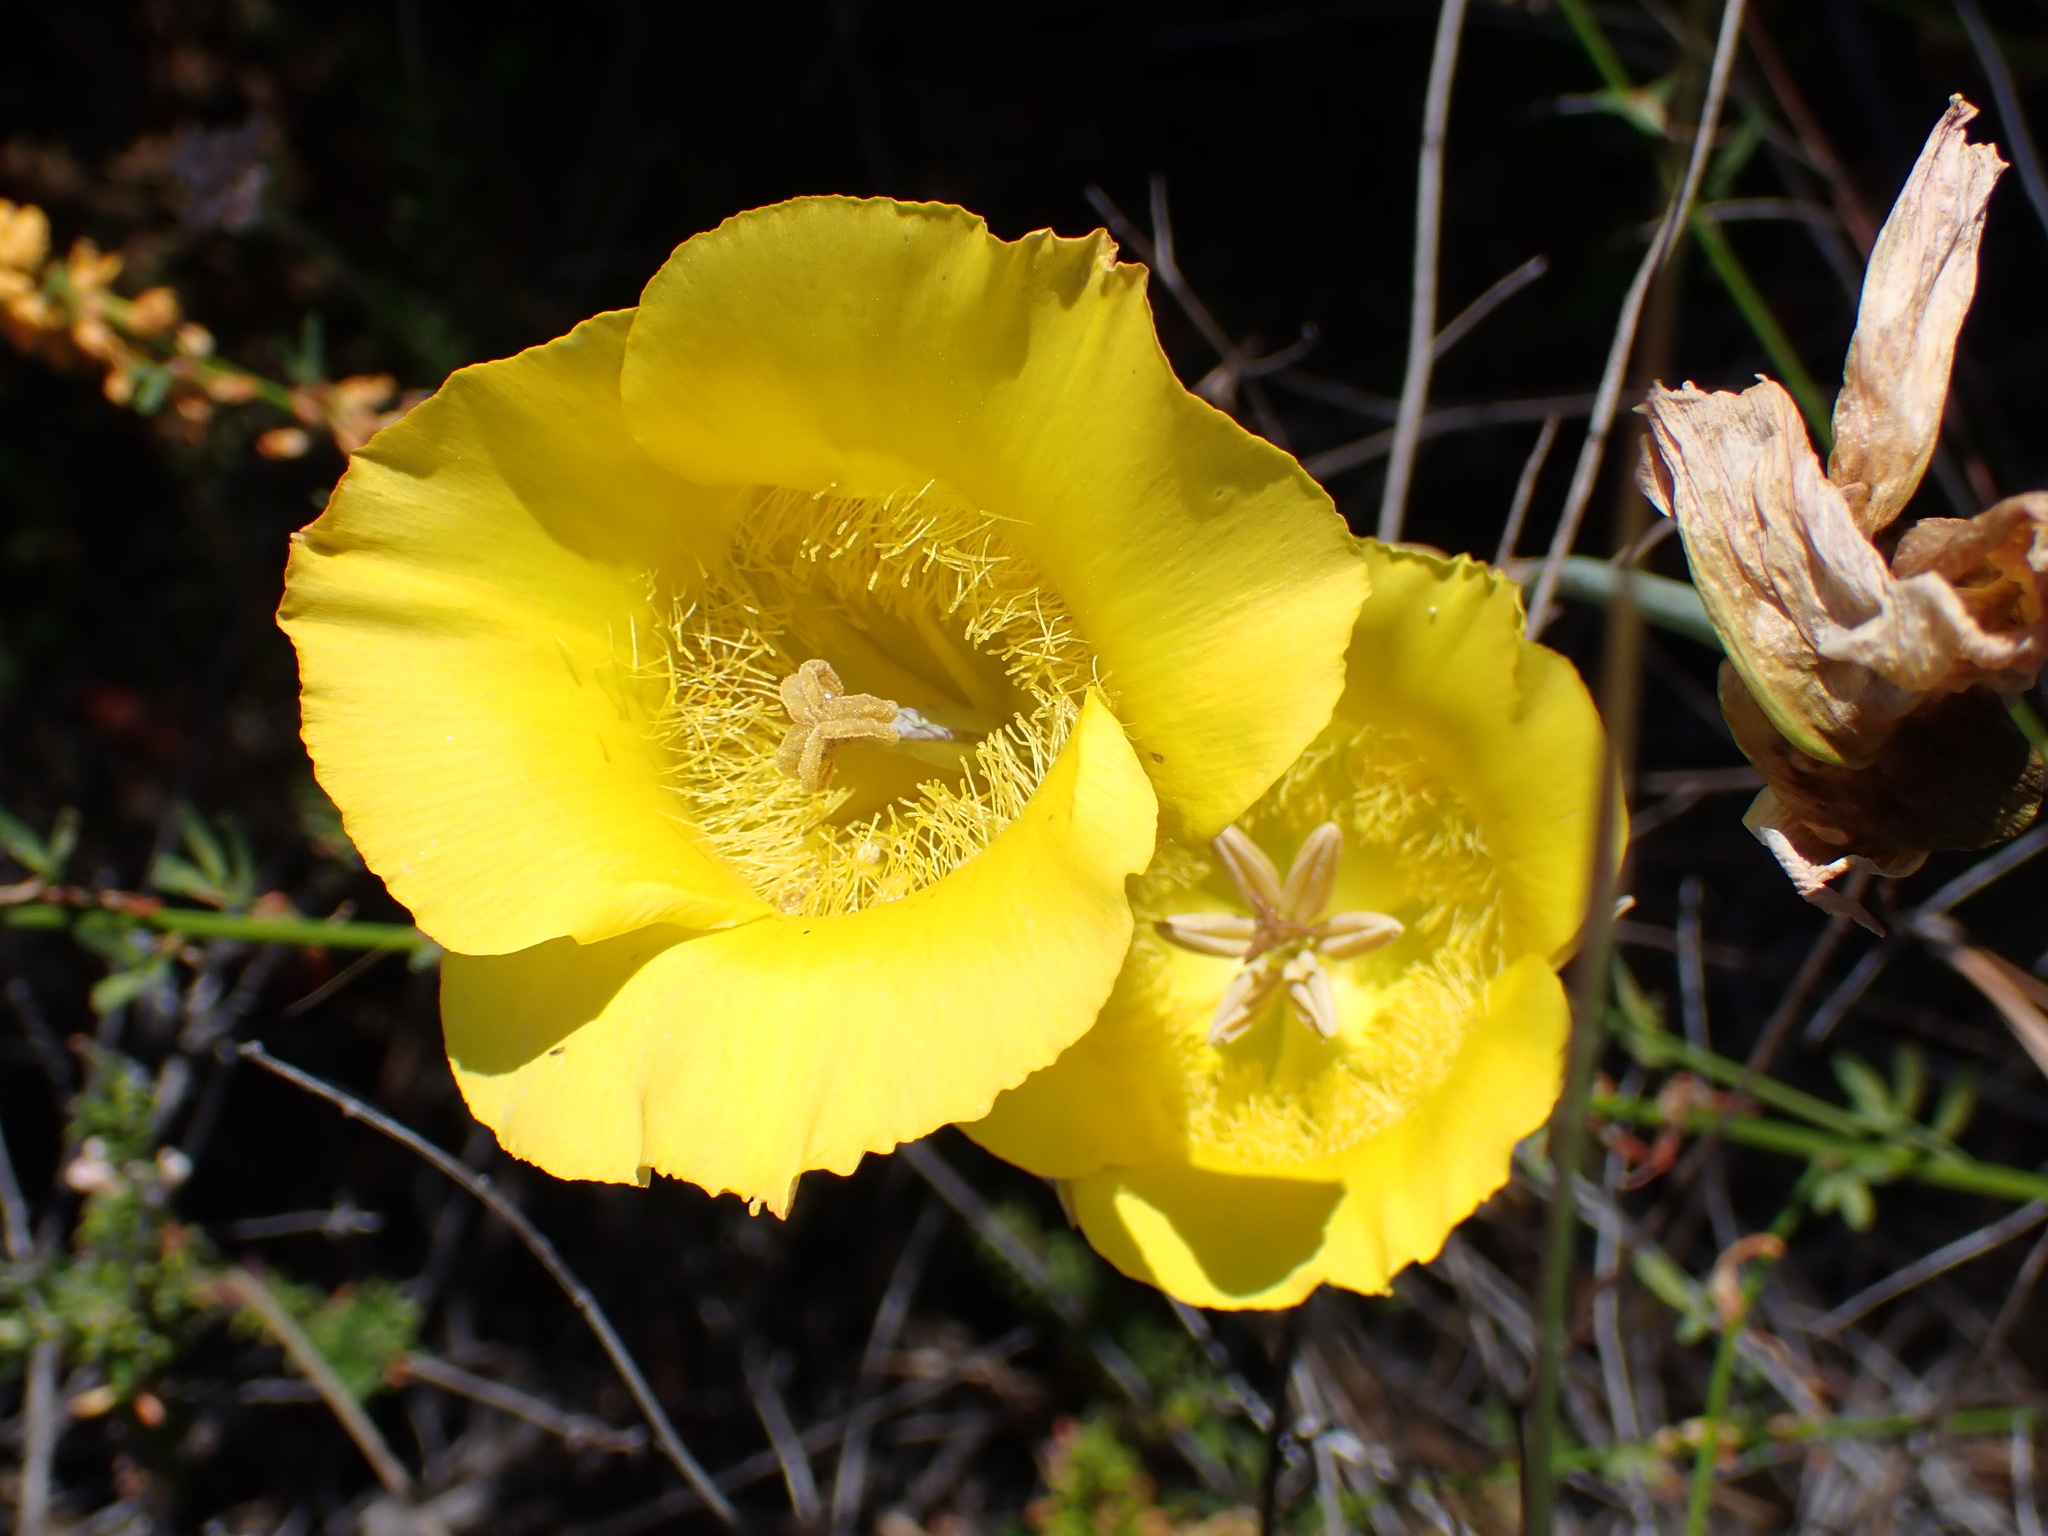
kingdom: Plantae
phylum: Tracheophyta
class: Liliopsida
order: Liliales
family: Liliaceae
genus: Calochortus
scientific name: Calochortus clavatus
